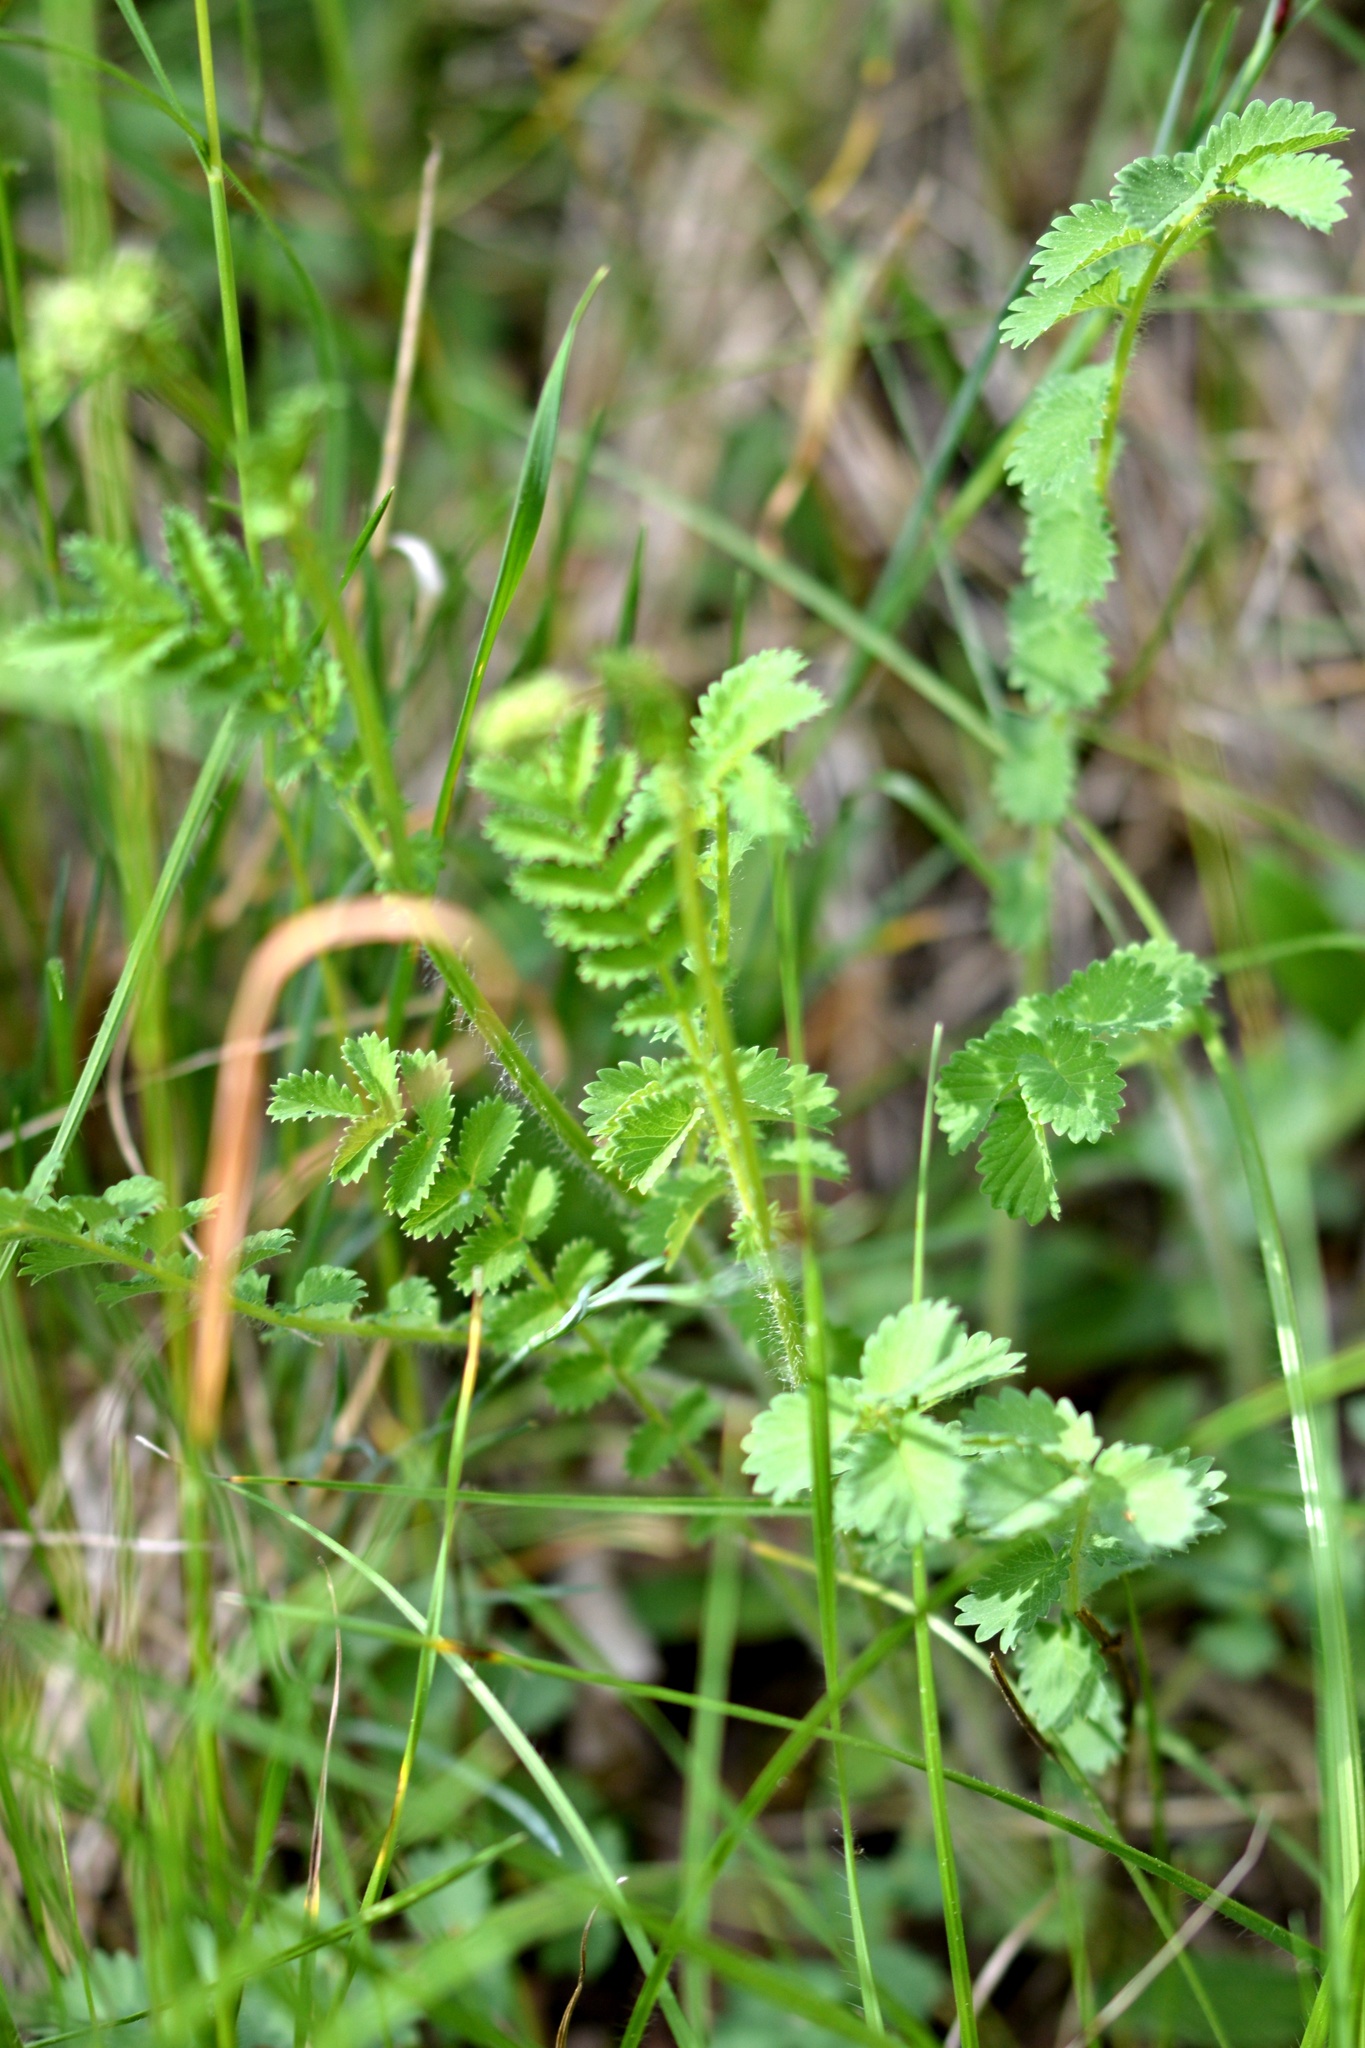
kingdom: Plantae
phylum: Tracheophyta
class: Magnoliopsida
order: Rosales
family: Rosaceae
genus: Poterium
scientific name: Poterium sanguisorba
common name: Salad burnet
